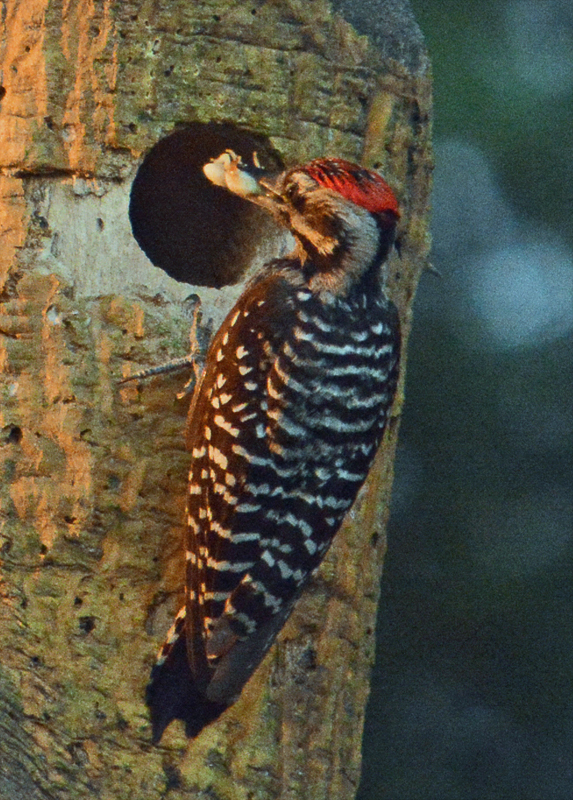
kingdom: Animalia
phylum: Chordata
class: Aves
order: Piciformes
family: Picidae
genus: Dryobates
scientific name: Dryobates scalaris
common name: Ladder-backed woodpecker
